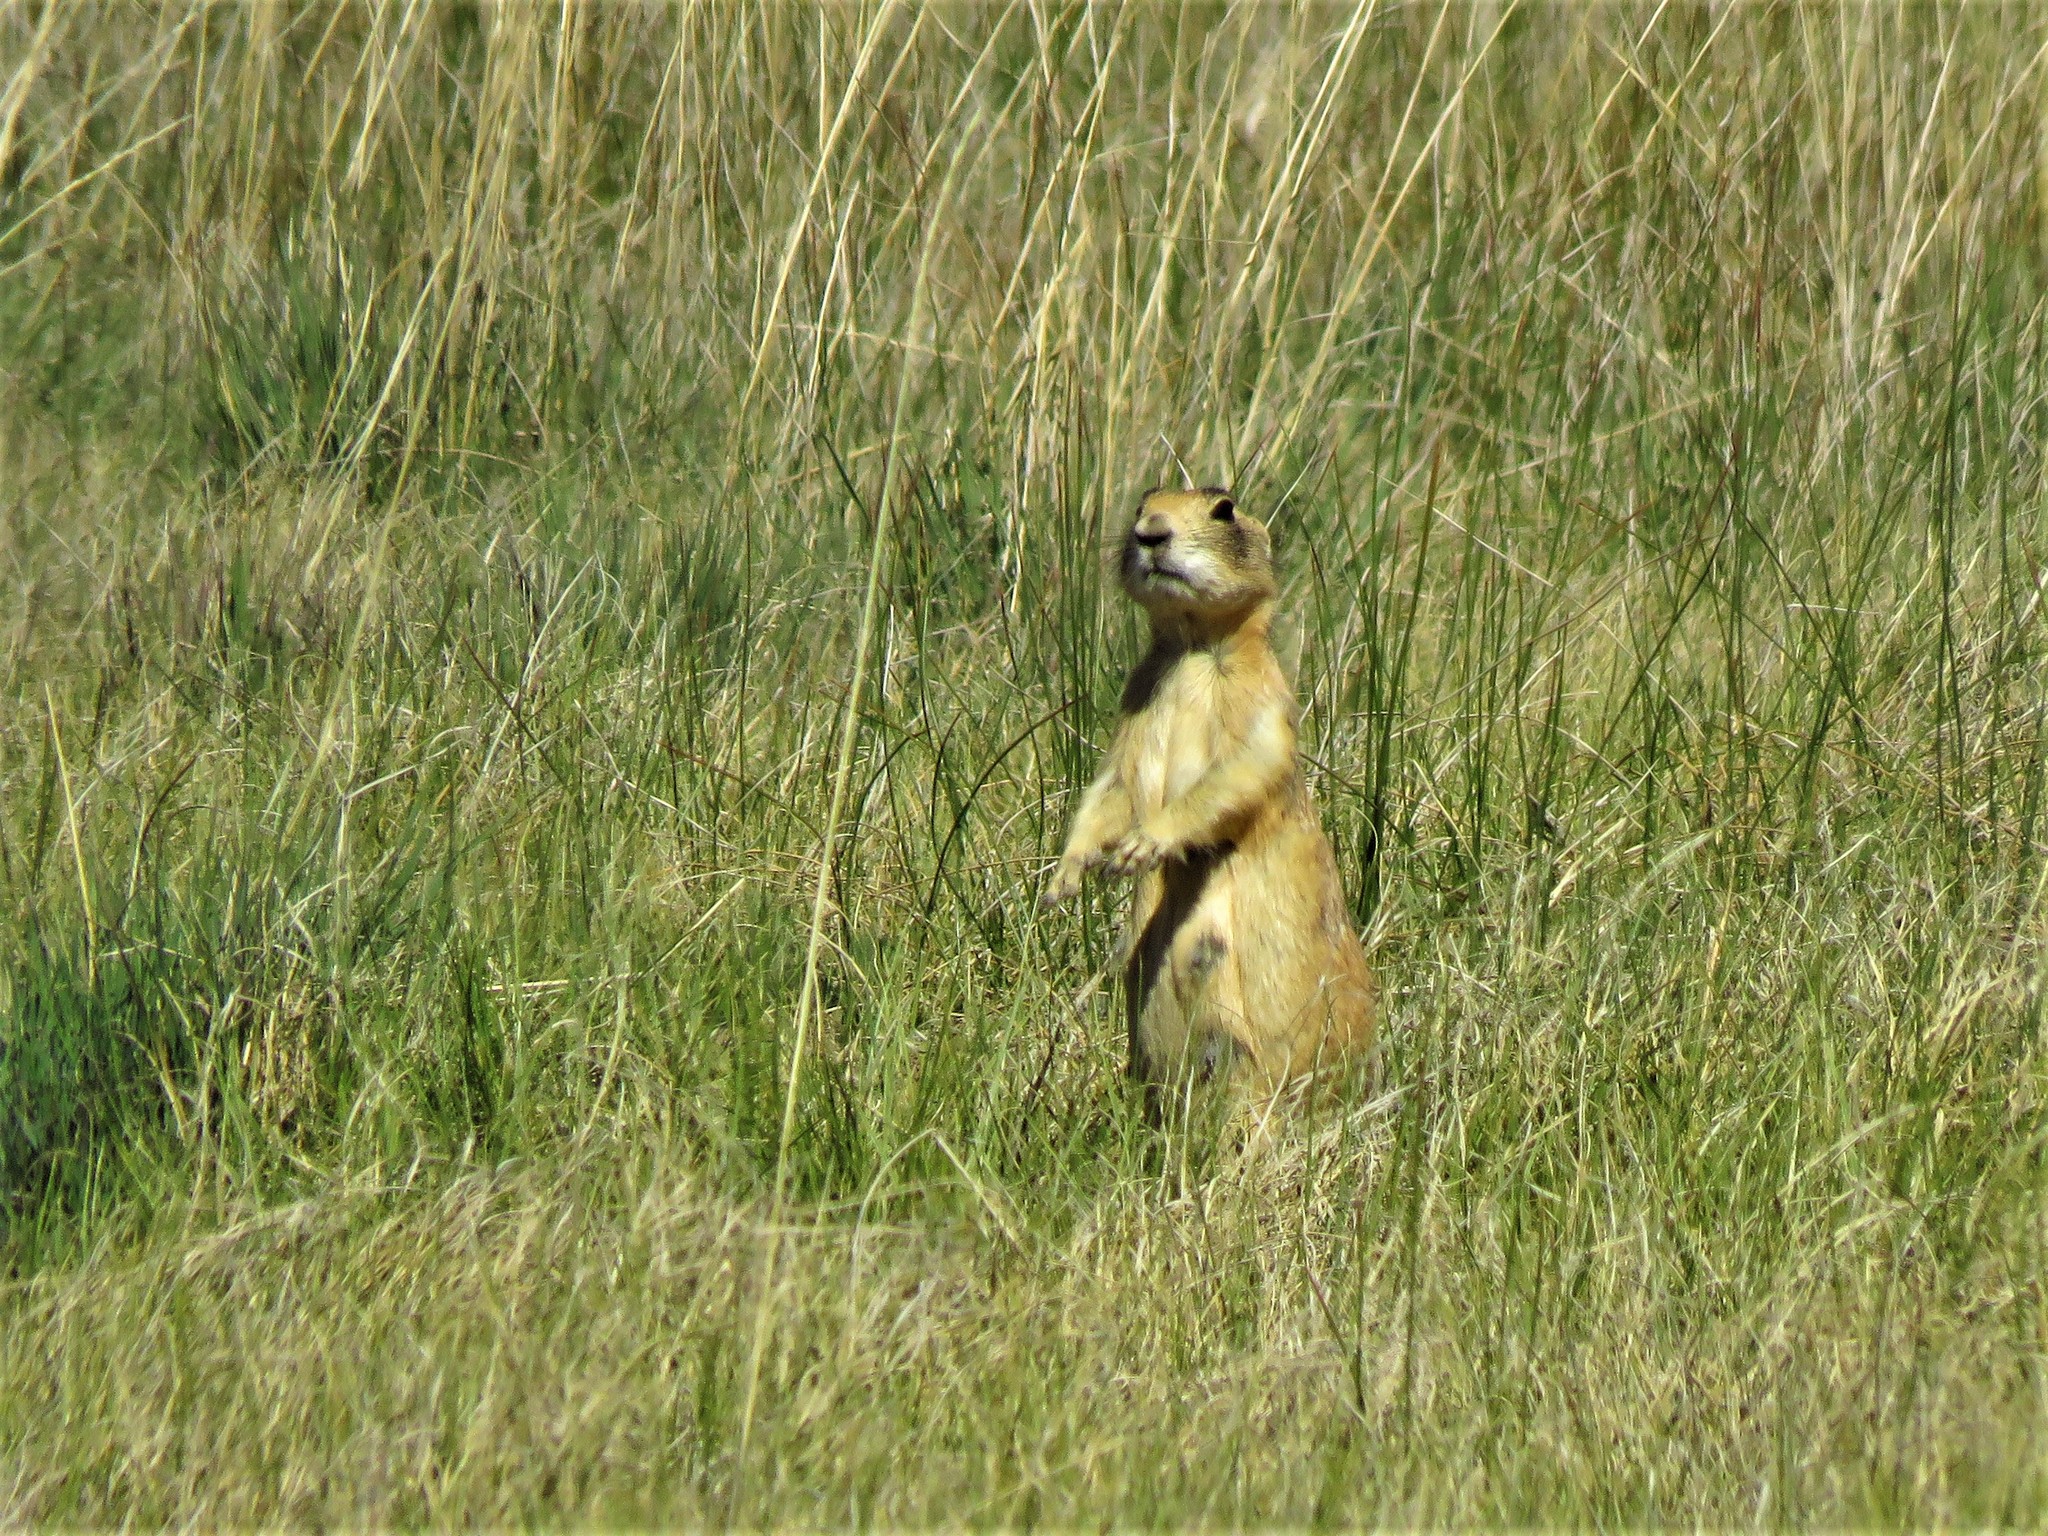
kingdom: Animalia
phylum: Chordata
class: Mammalia
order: Rodentia
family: Sciuridae
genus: Cynomys
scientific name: Cynomys parvidens
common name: Utah prairie dog
